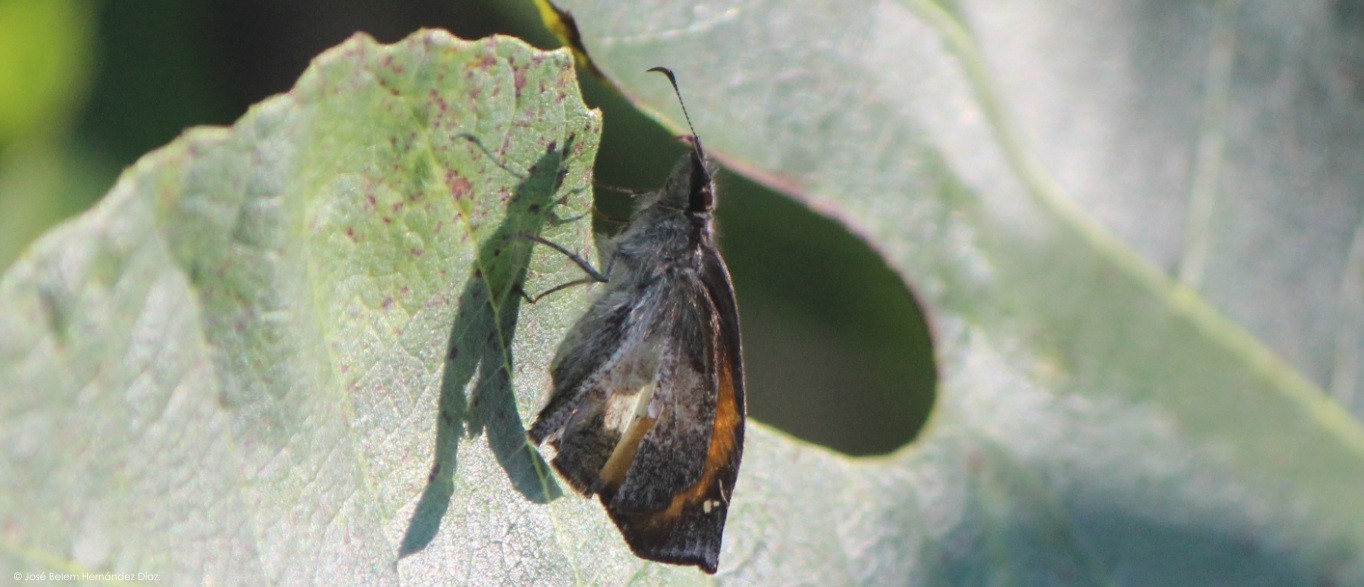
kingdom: Animalia
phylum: Arthropoda
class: Insecta
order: Lepidoptera
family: Hesperiidae
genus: Theagenes
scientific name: Theagenes
